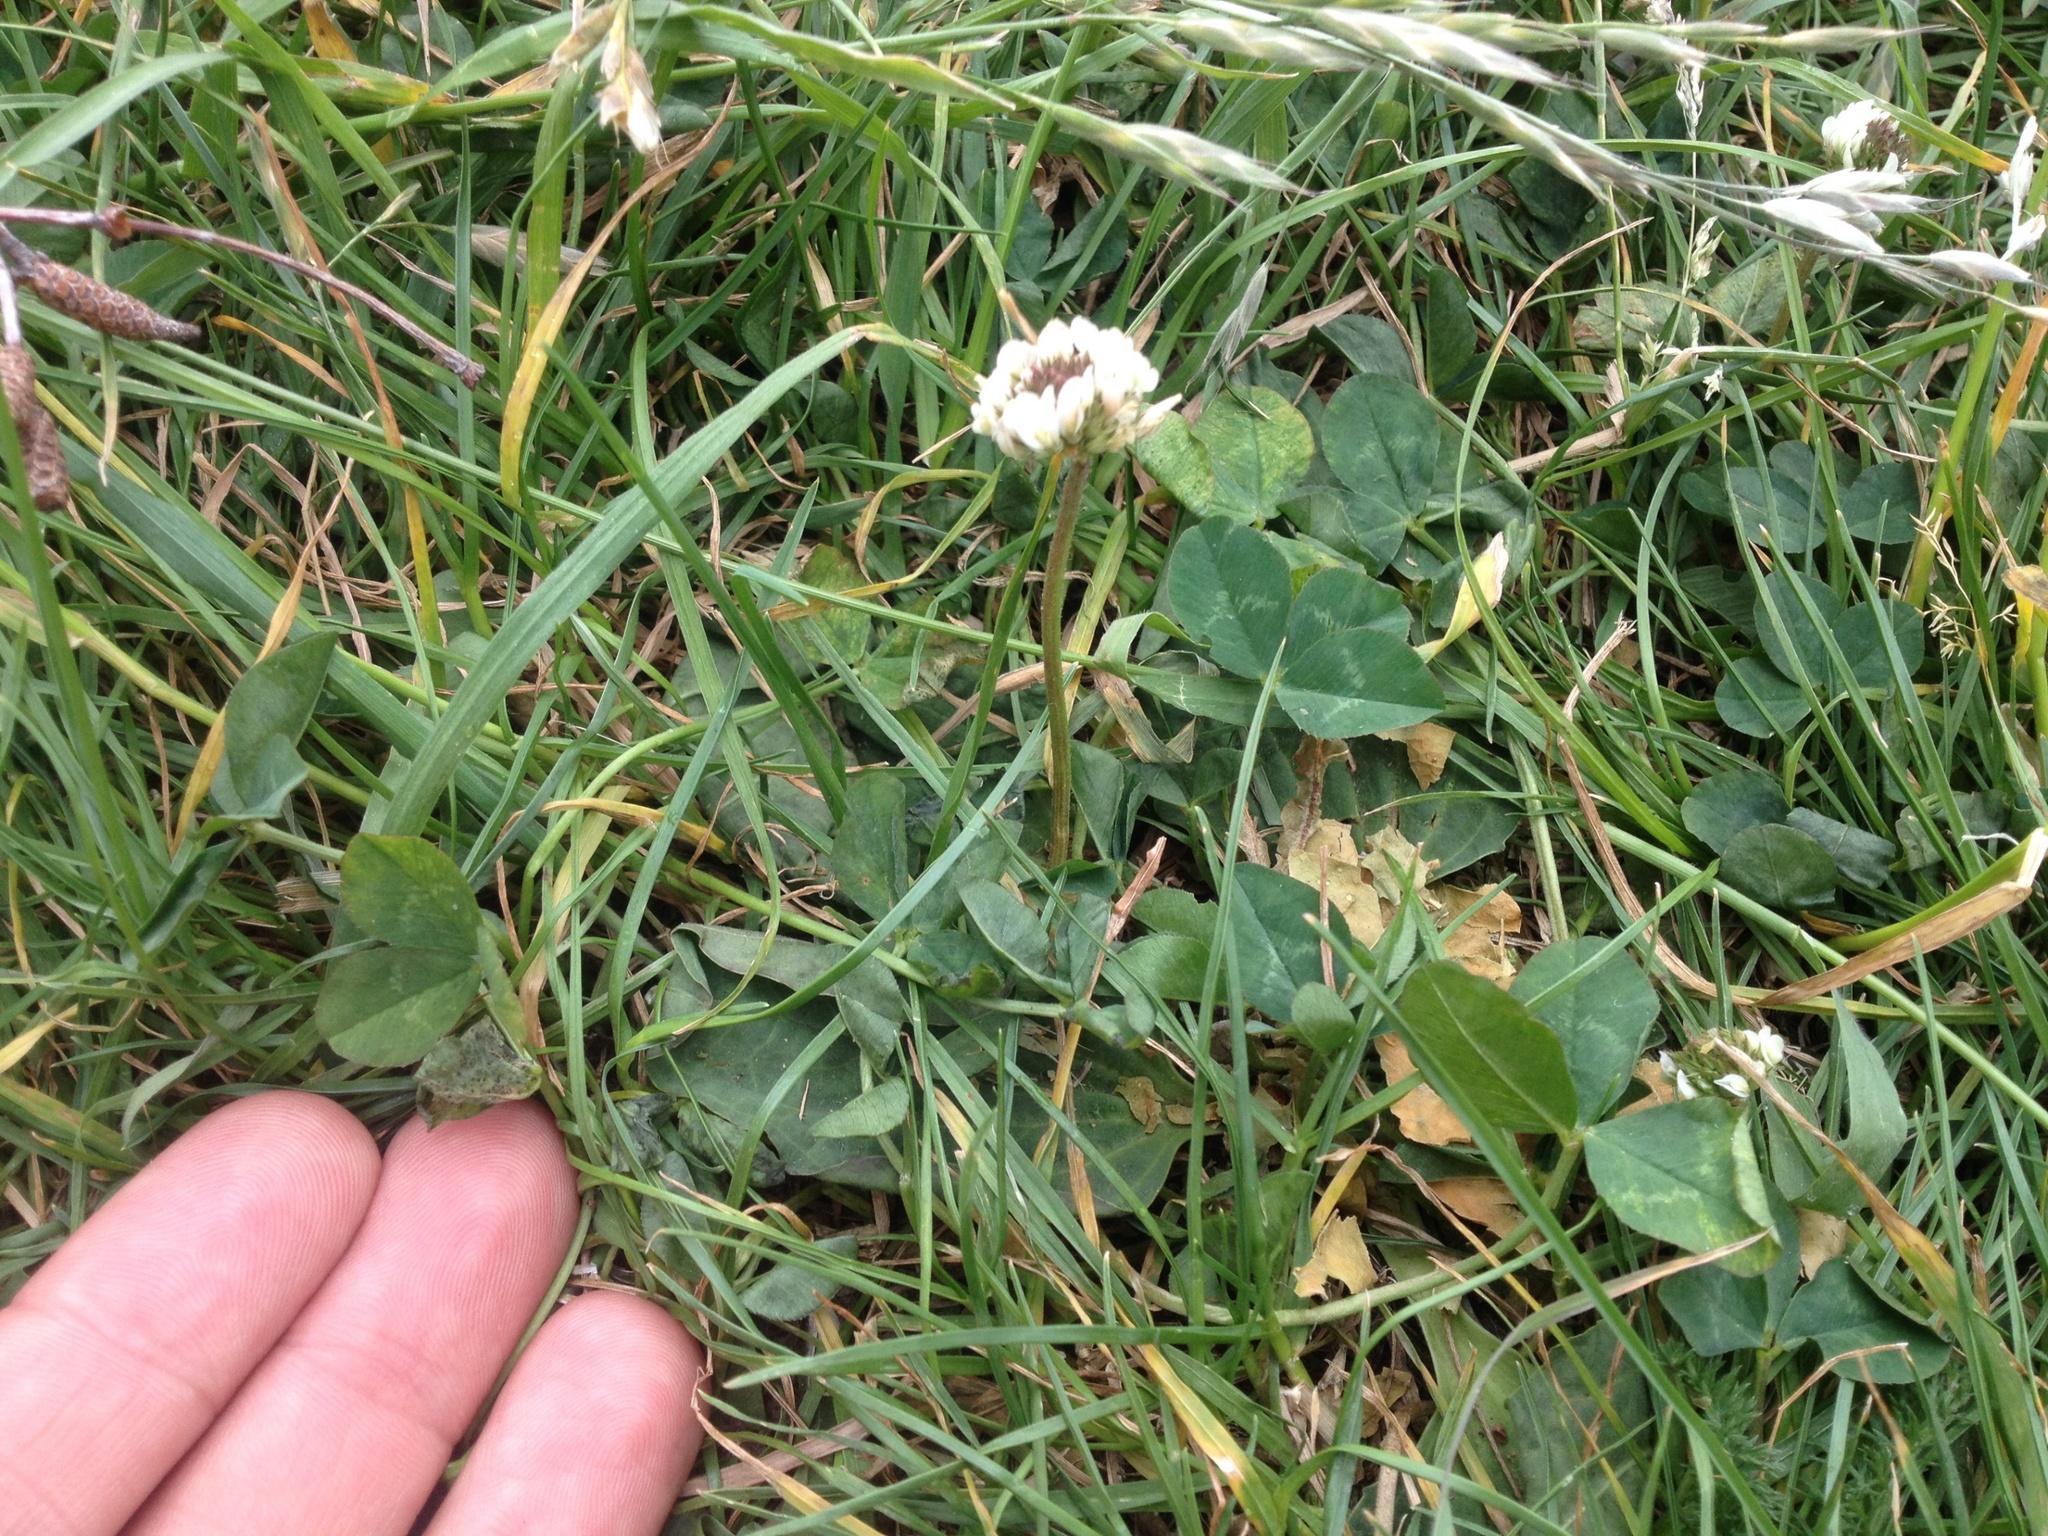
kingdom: Plantae
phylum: Tracheophyta
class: Magnoliopsida
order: Fabales
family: Fabaceae
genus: Trifolium
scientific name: Trifolium repens
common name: White clover
